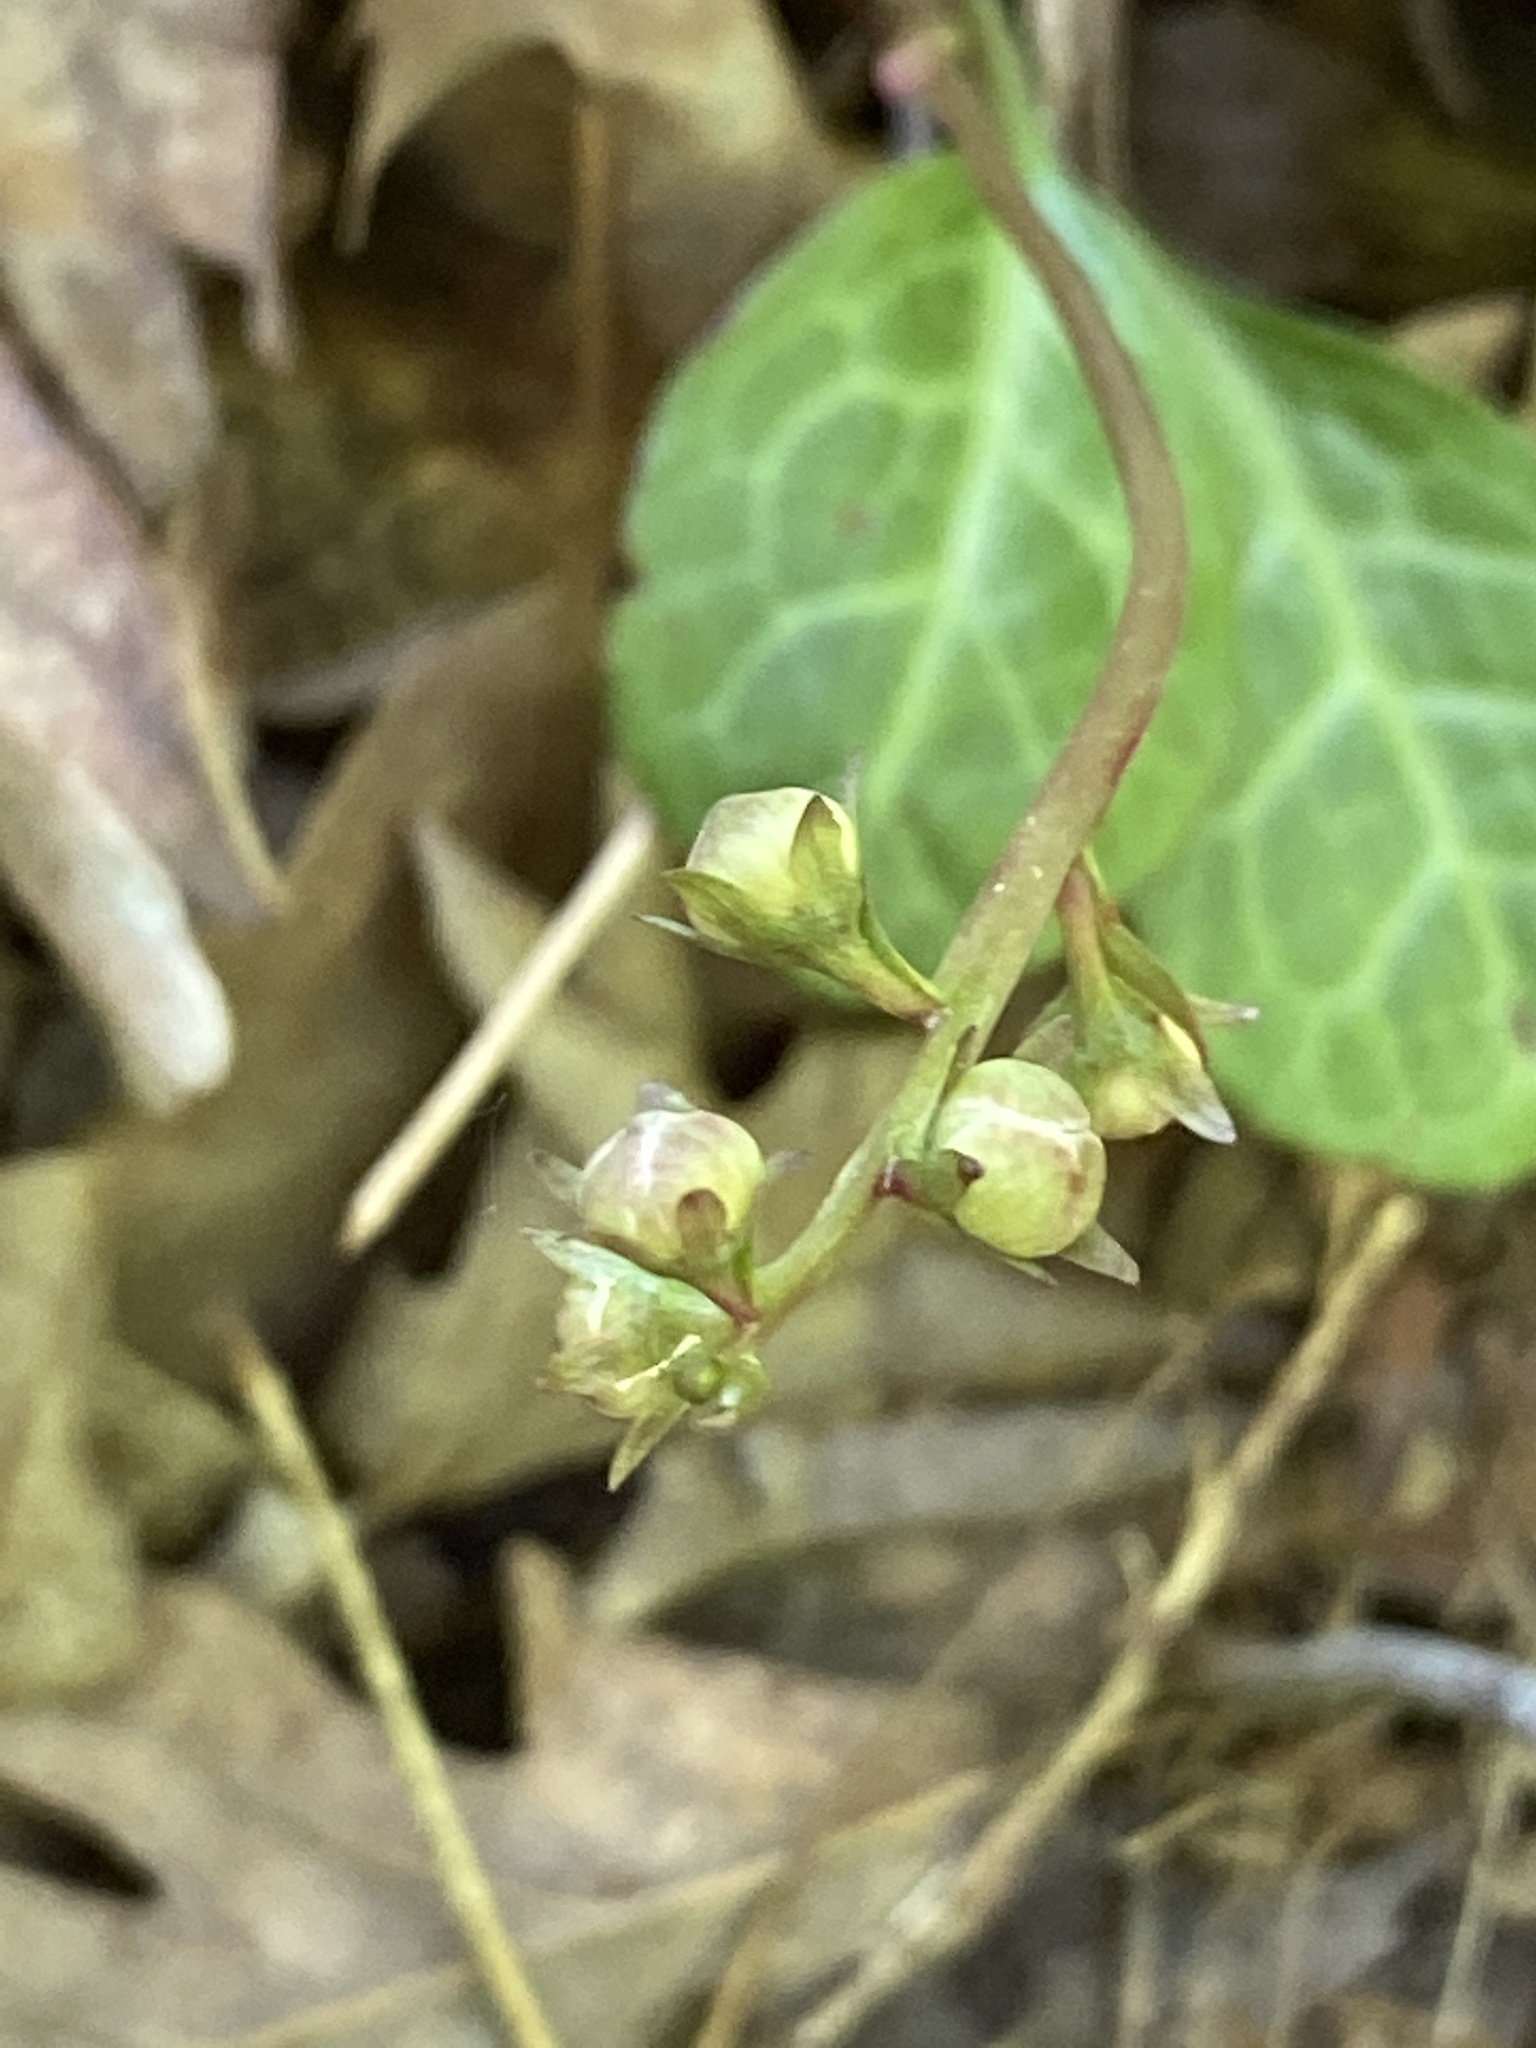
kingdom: Plantae
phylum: Tracheophyta
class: Magnoliopsida
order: Ericales
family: Ericaceae
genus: Pyrola
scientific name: Pyrola americana
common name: American wintergreen
